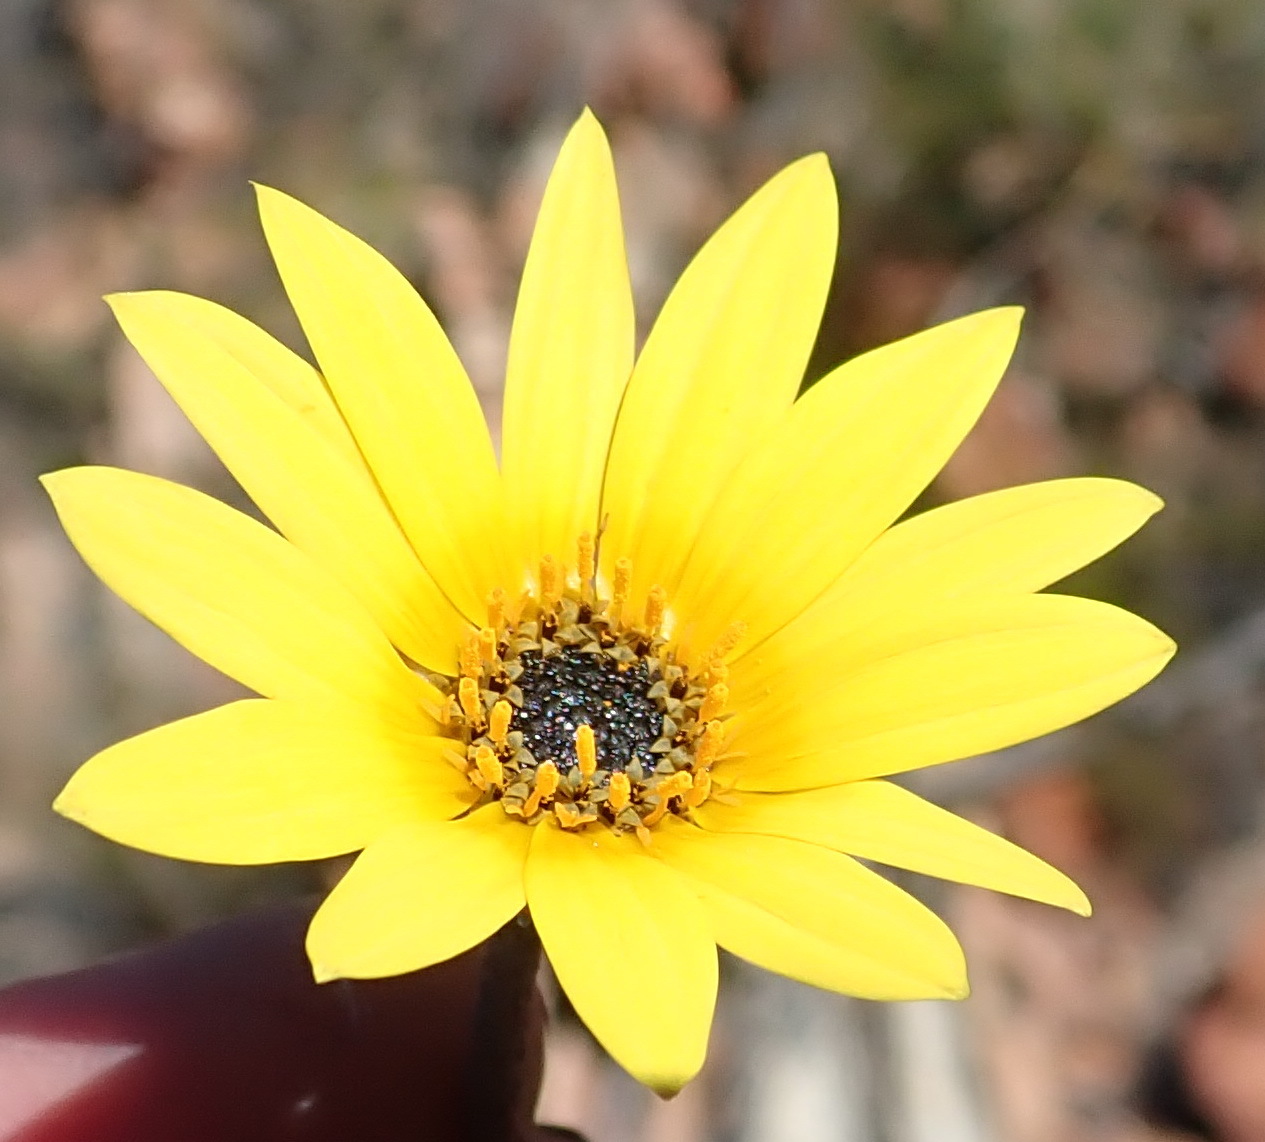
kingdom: Plantae
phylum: Tracheophyta
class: Magnoliopsida
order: Asterales
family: Asteraceae
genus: Arctotis
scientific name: Arctotis lanceolata
